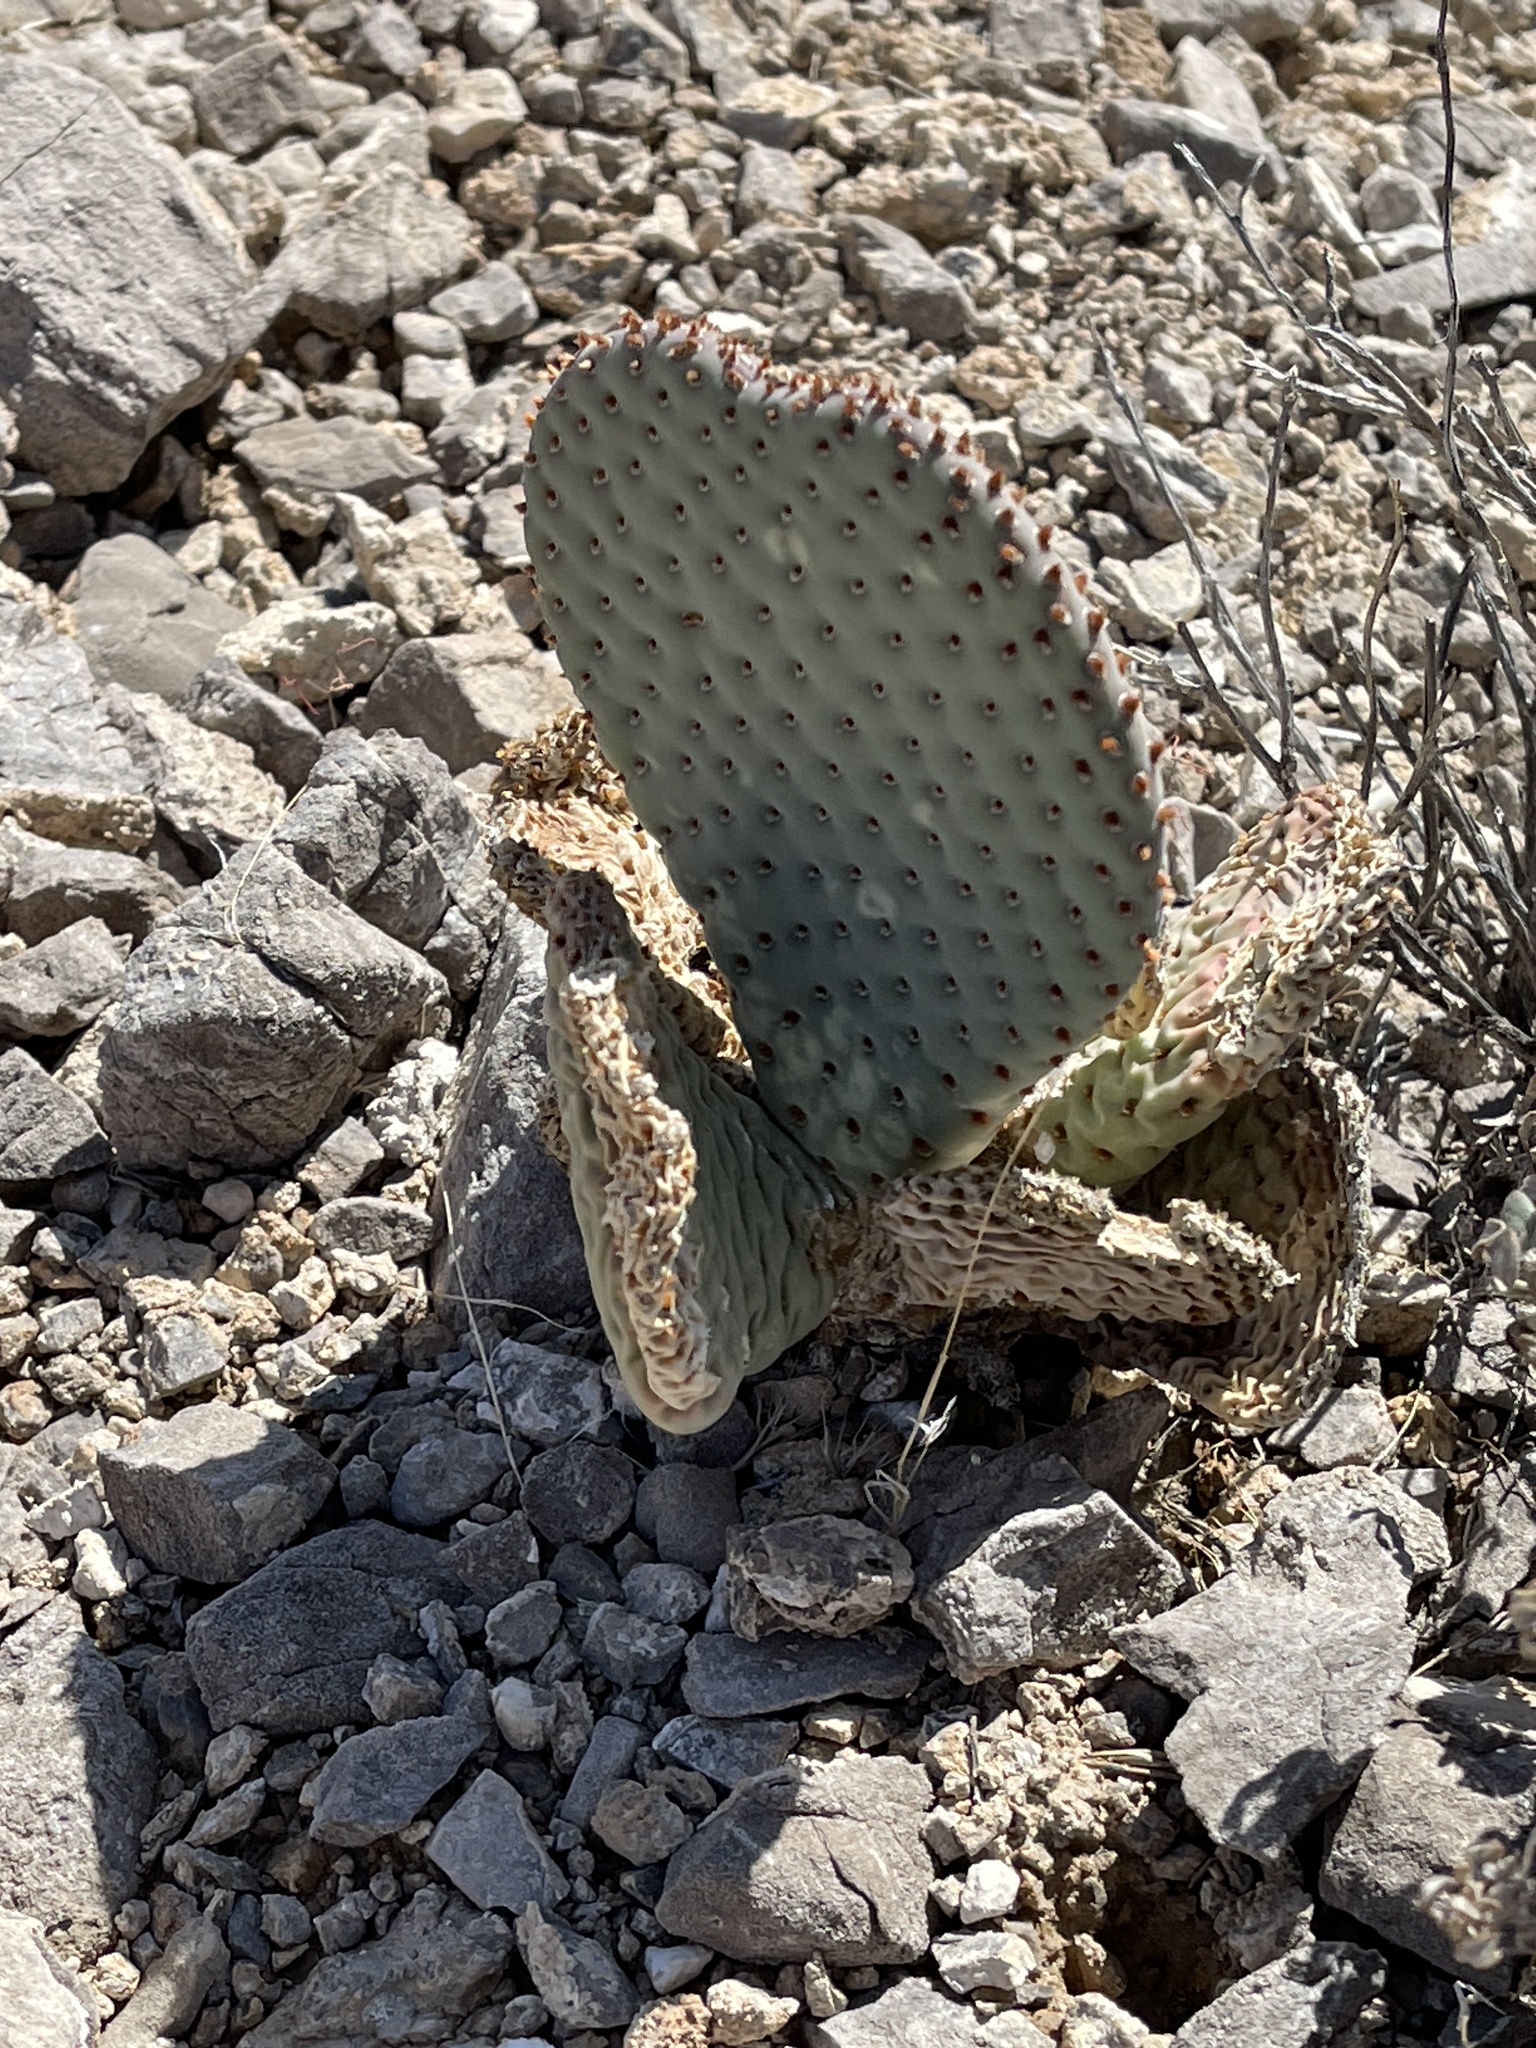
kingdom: Plantae
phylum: Tracheophyta
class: Magnoliopsida
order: Caryophyllales
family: Cactaceae
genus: Opuntia
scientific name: Opuntia basilaris
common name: Beavertail prickly-pear
